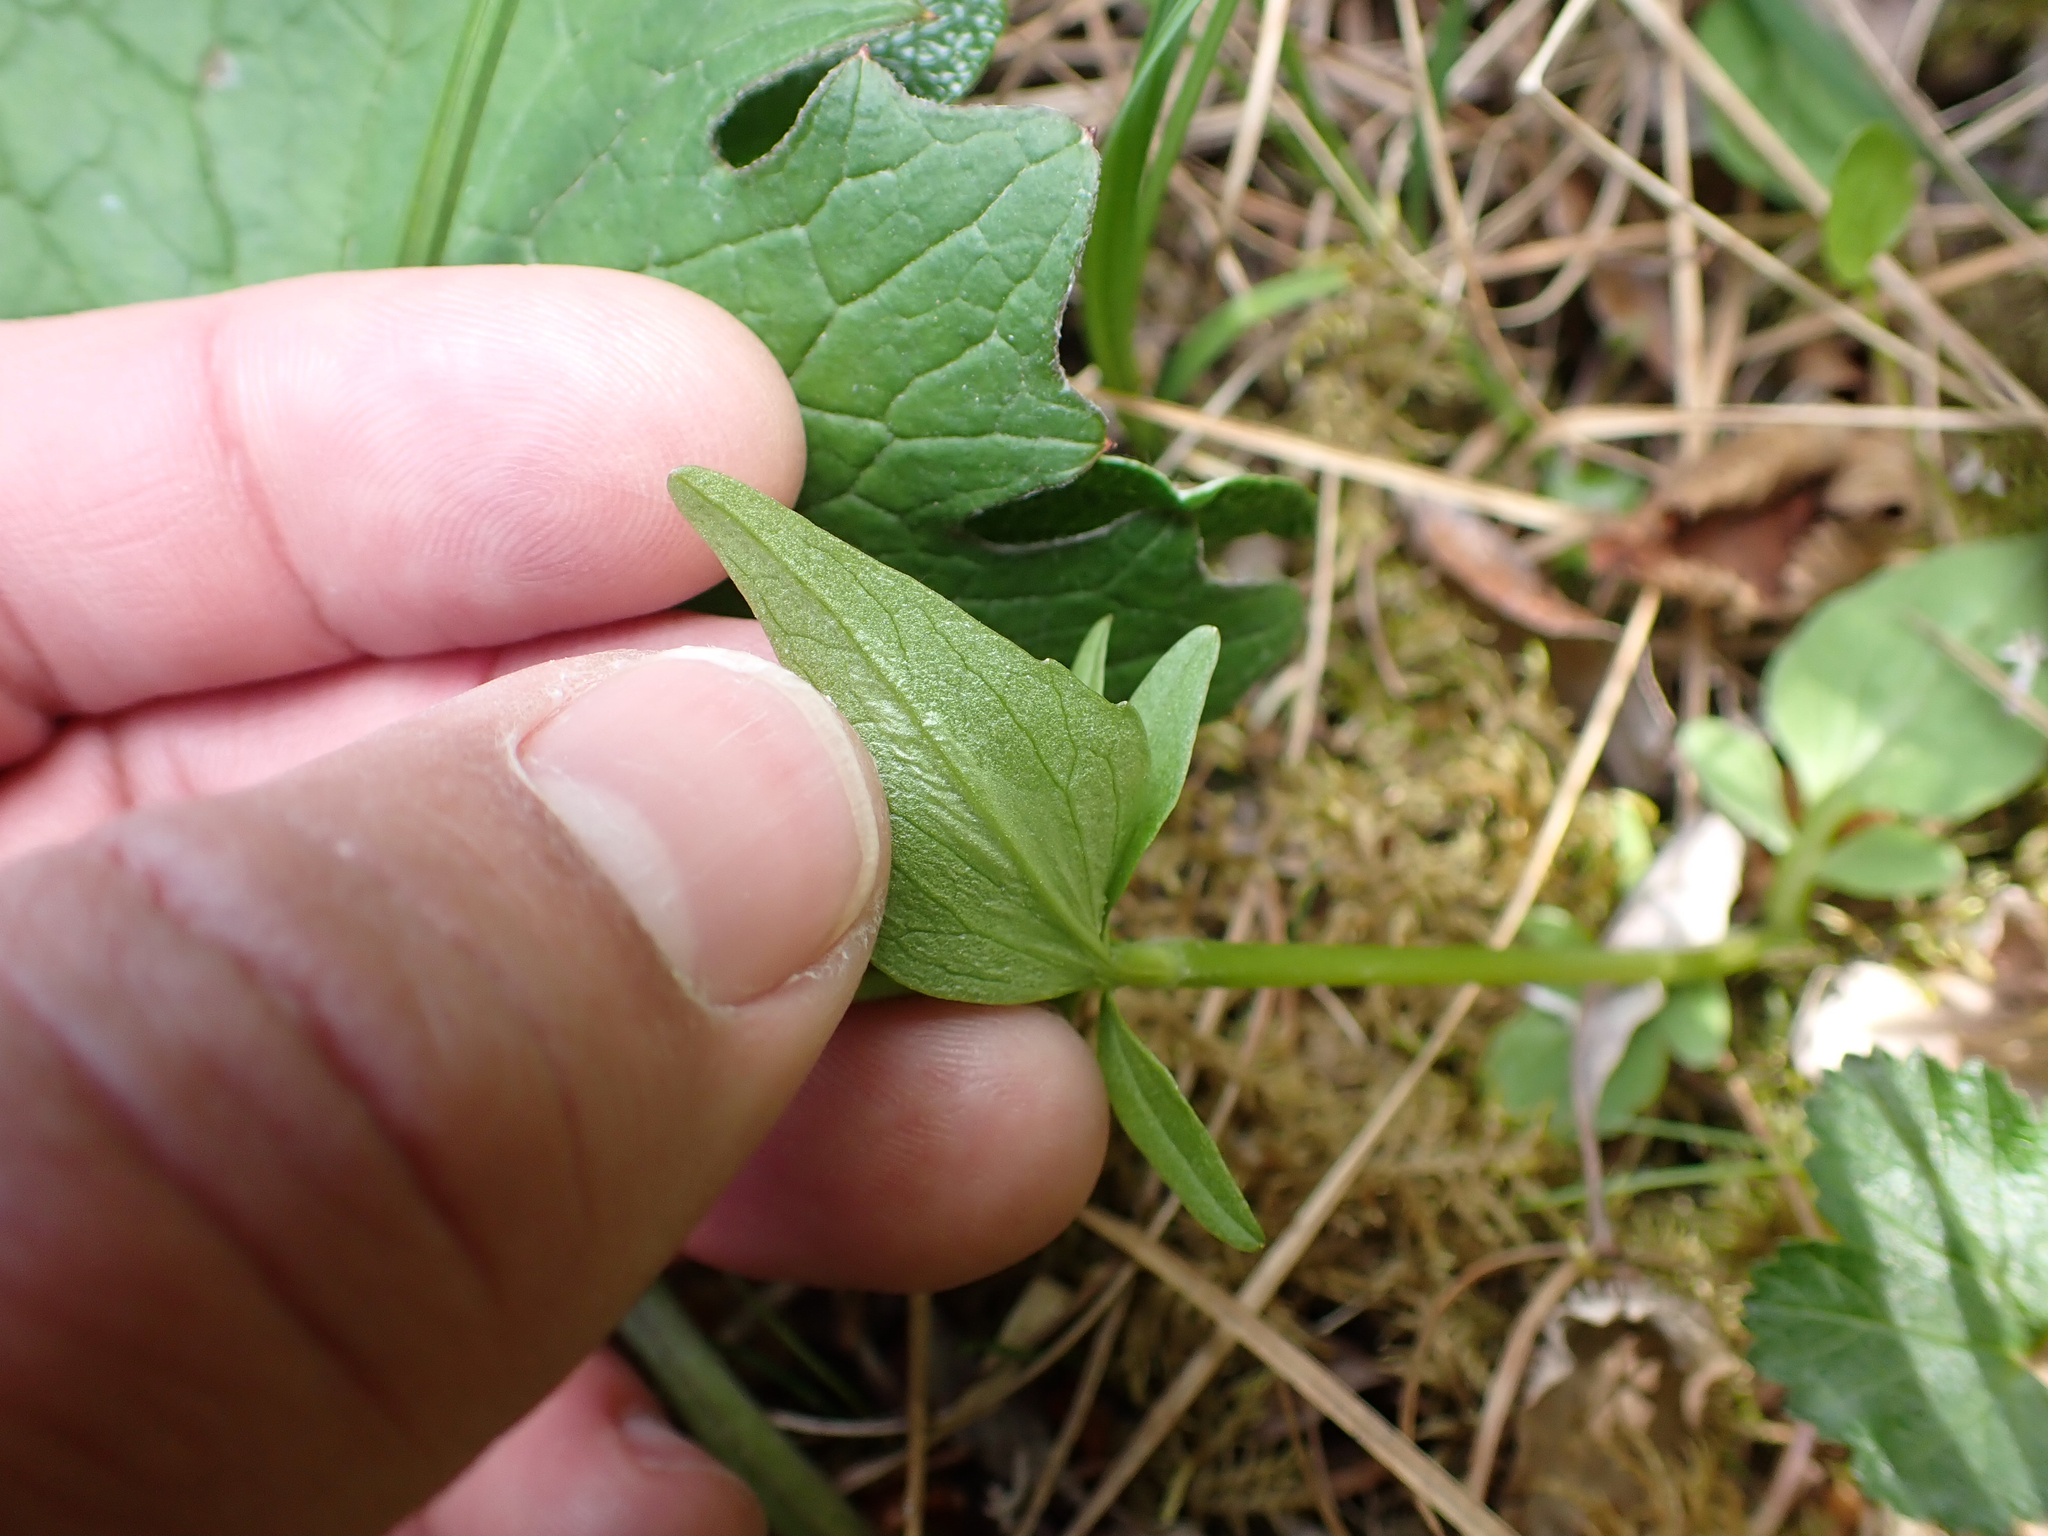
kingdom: Plantae
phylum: Tracheophyta
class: Magnoliopsida
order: Dipsacales
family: Caprifoliaceae
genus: Valeriana
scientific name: Valeriana capitata
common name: Capitate valerian
